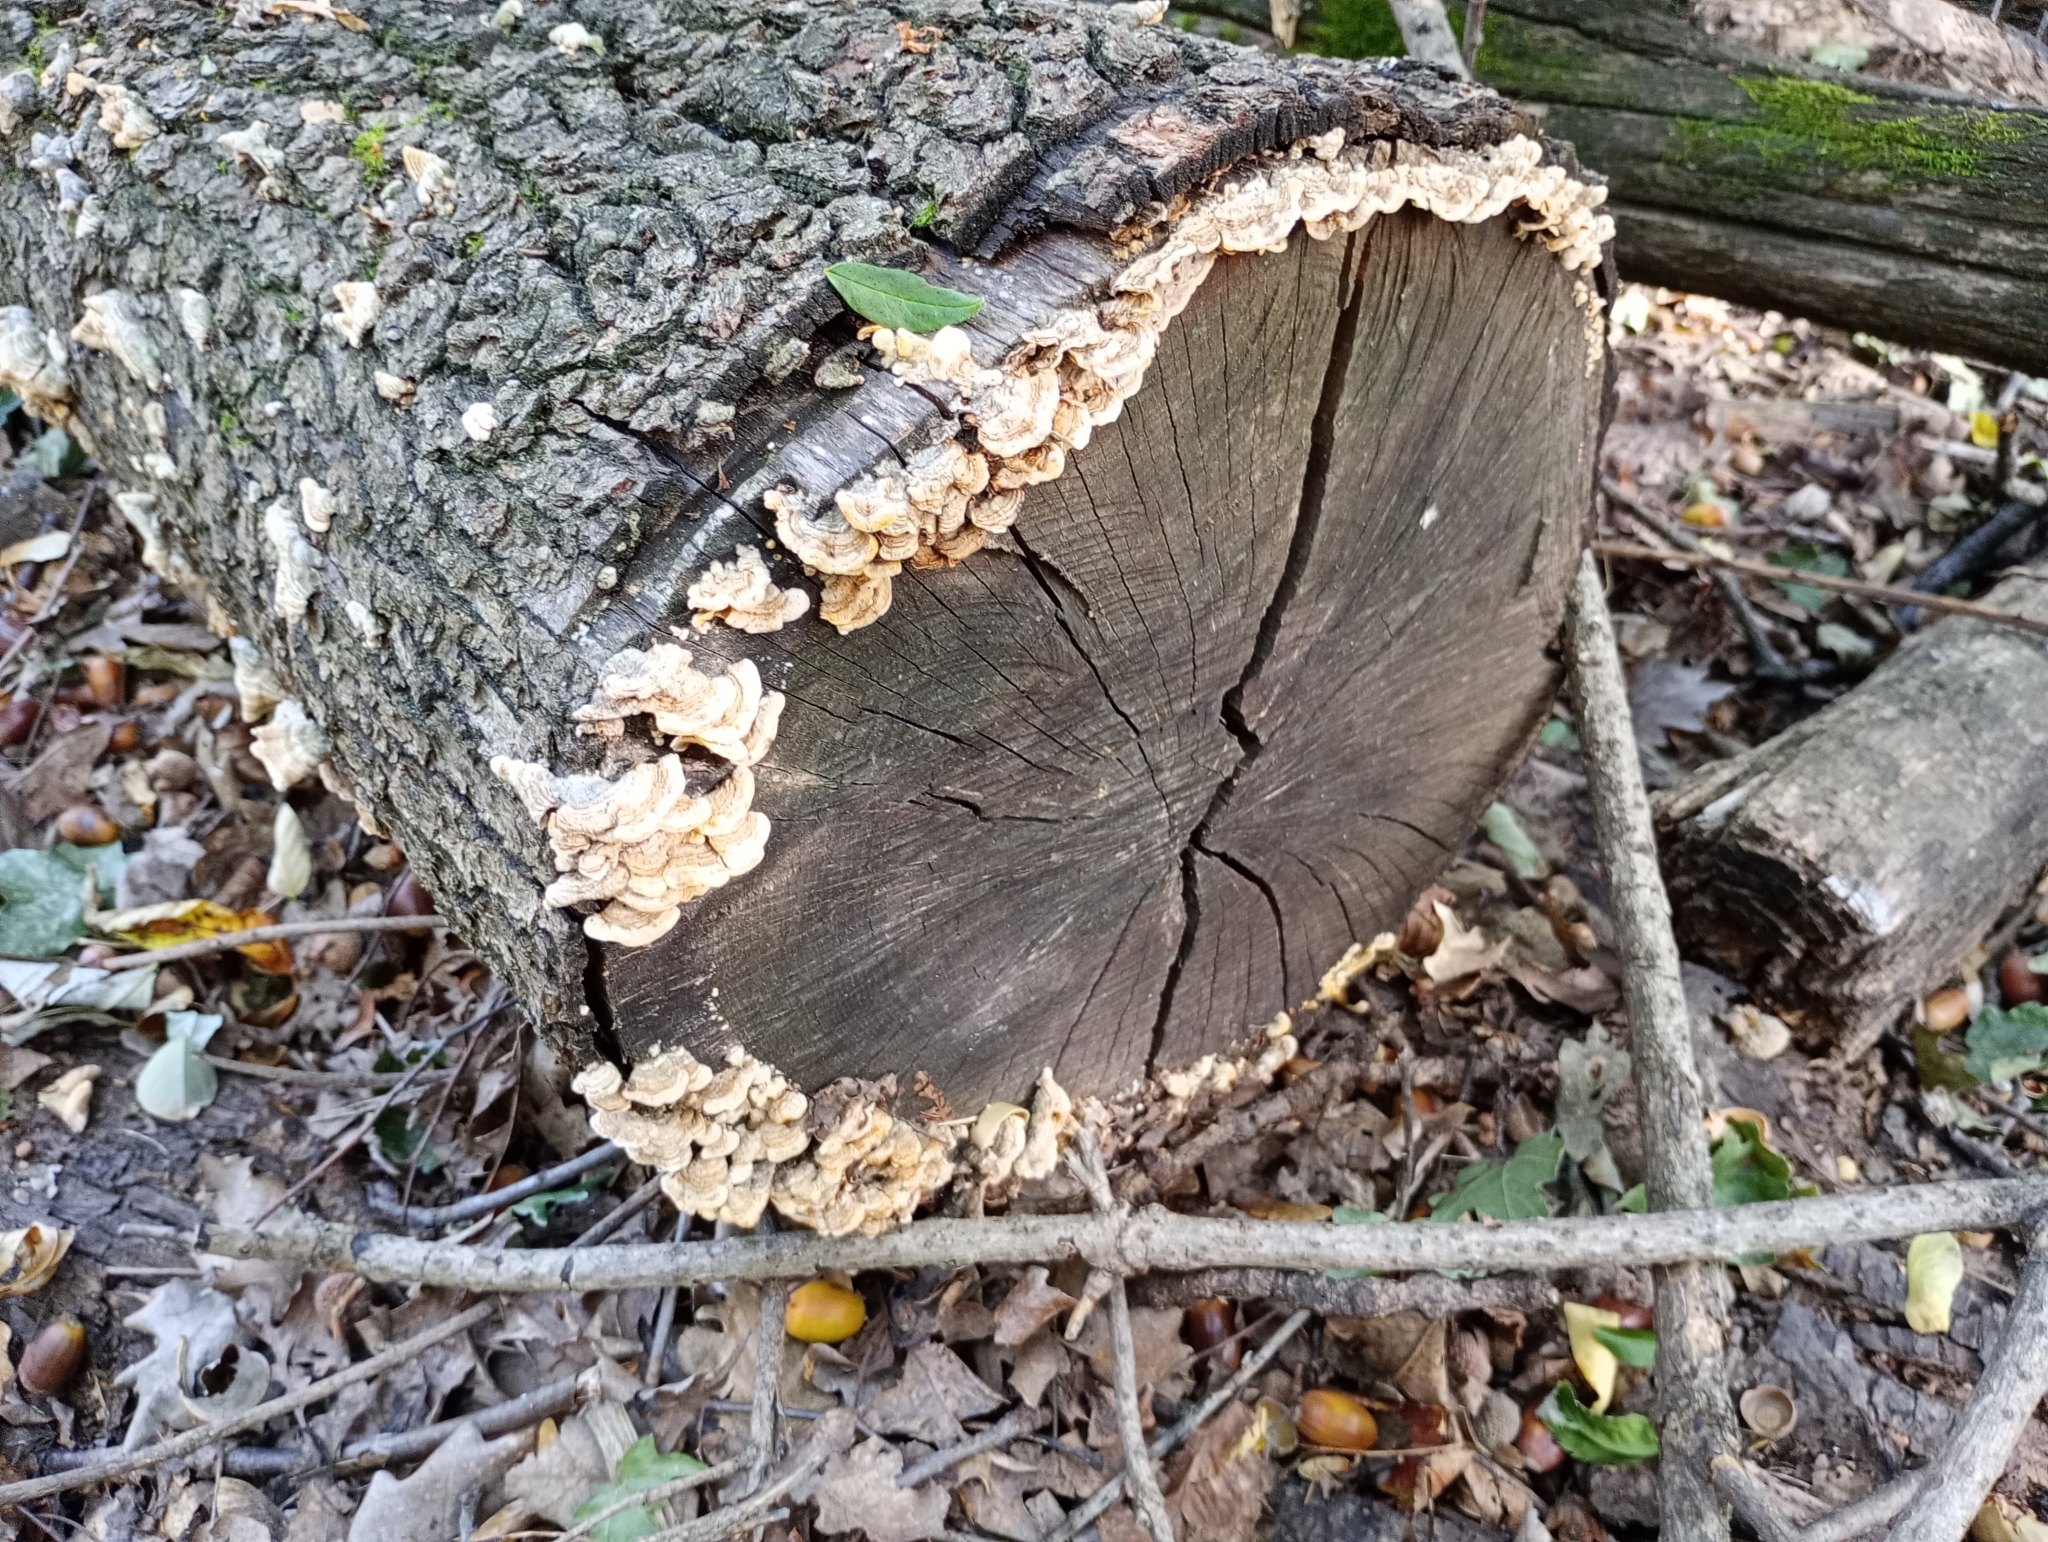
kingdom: Fungi
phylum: Basidiomycota
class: Agaricomycetes
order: Russulales
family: Stereaceae
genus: Stereum
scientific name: Stereum hirsutum
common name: Hairy curtain crust
